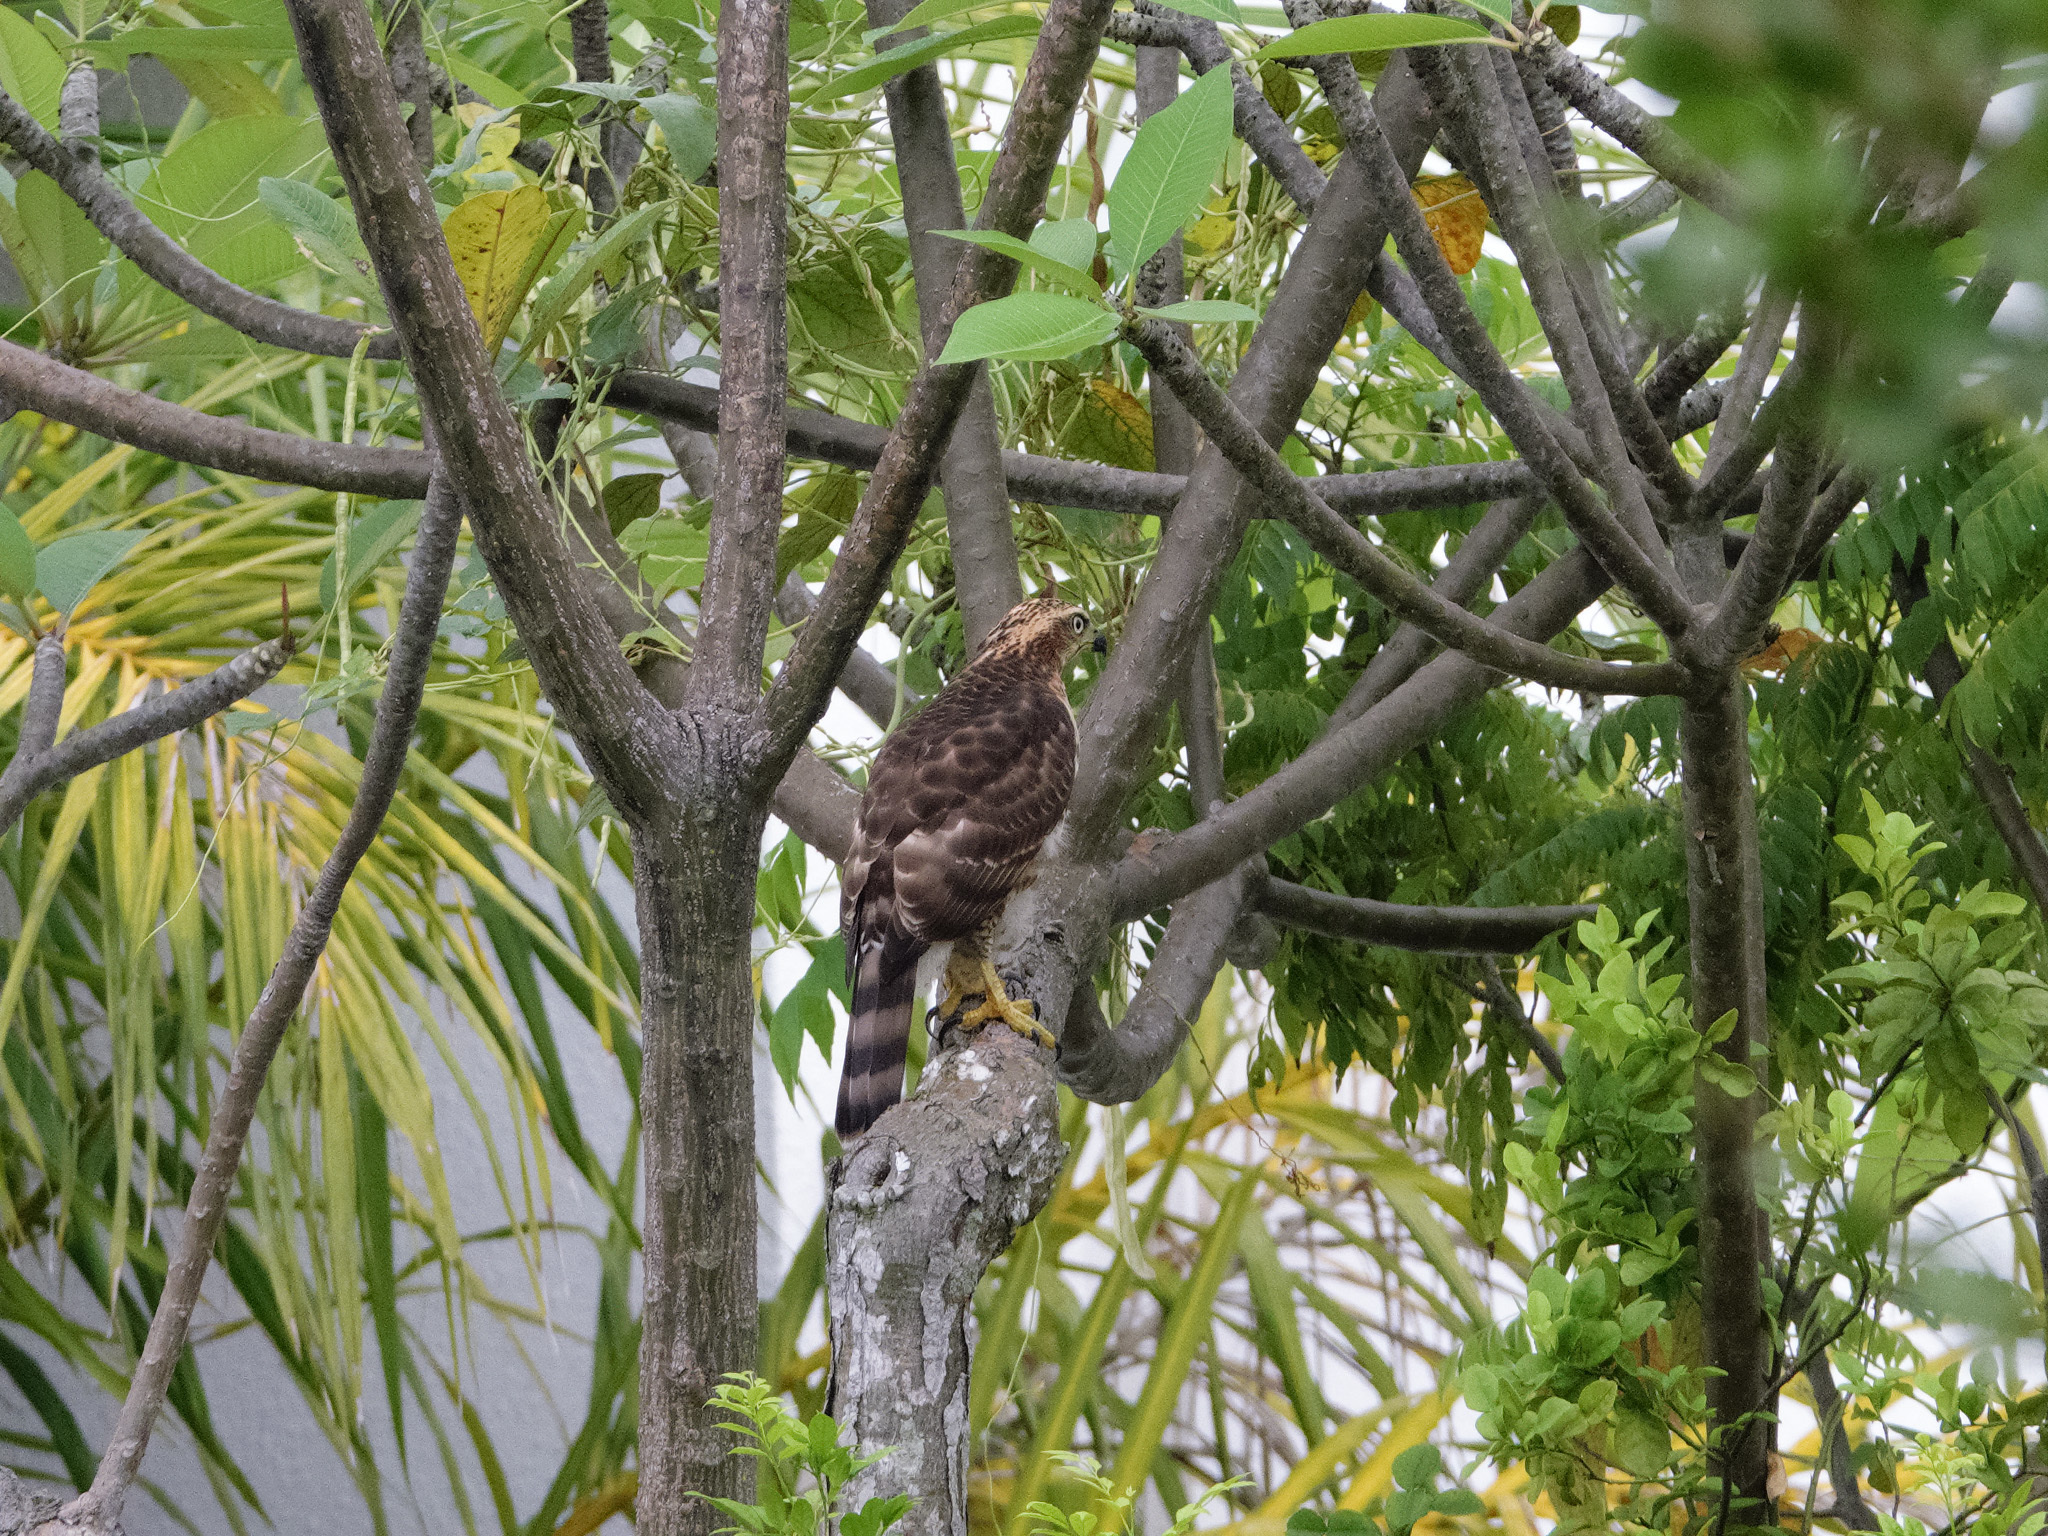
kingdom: Animalia
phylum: Chordata
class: Aves
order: Accipitriformes
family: Accipitridae
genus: Accipiter
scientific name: Accipiter trivirgatus
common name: Crested goshawk
